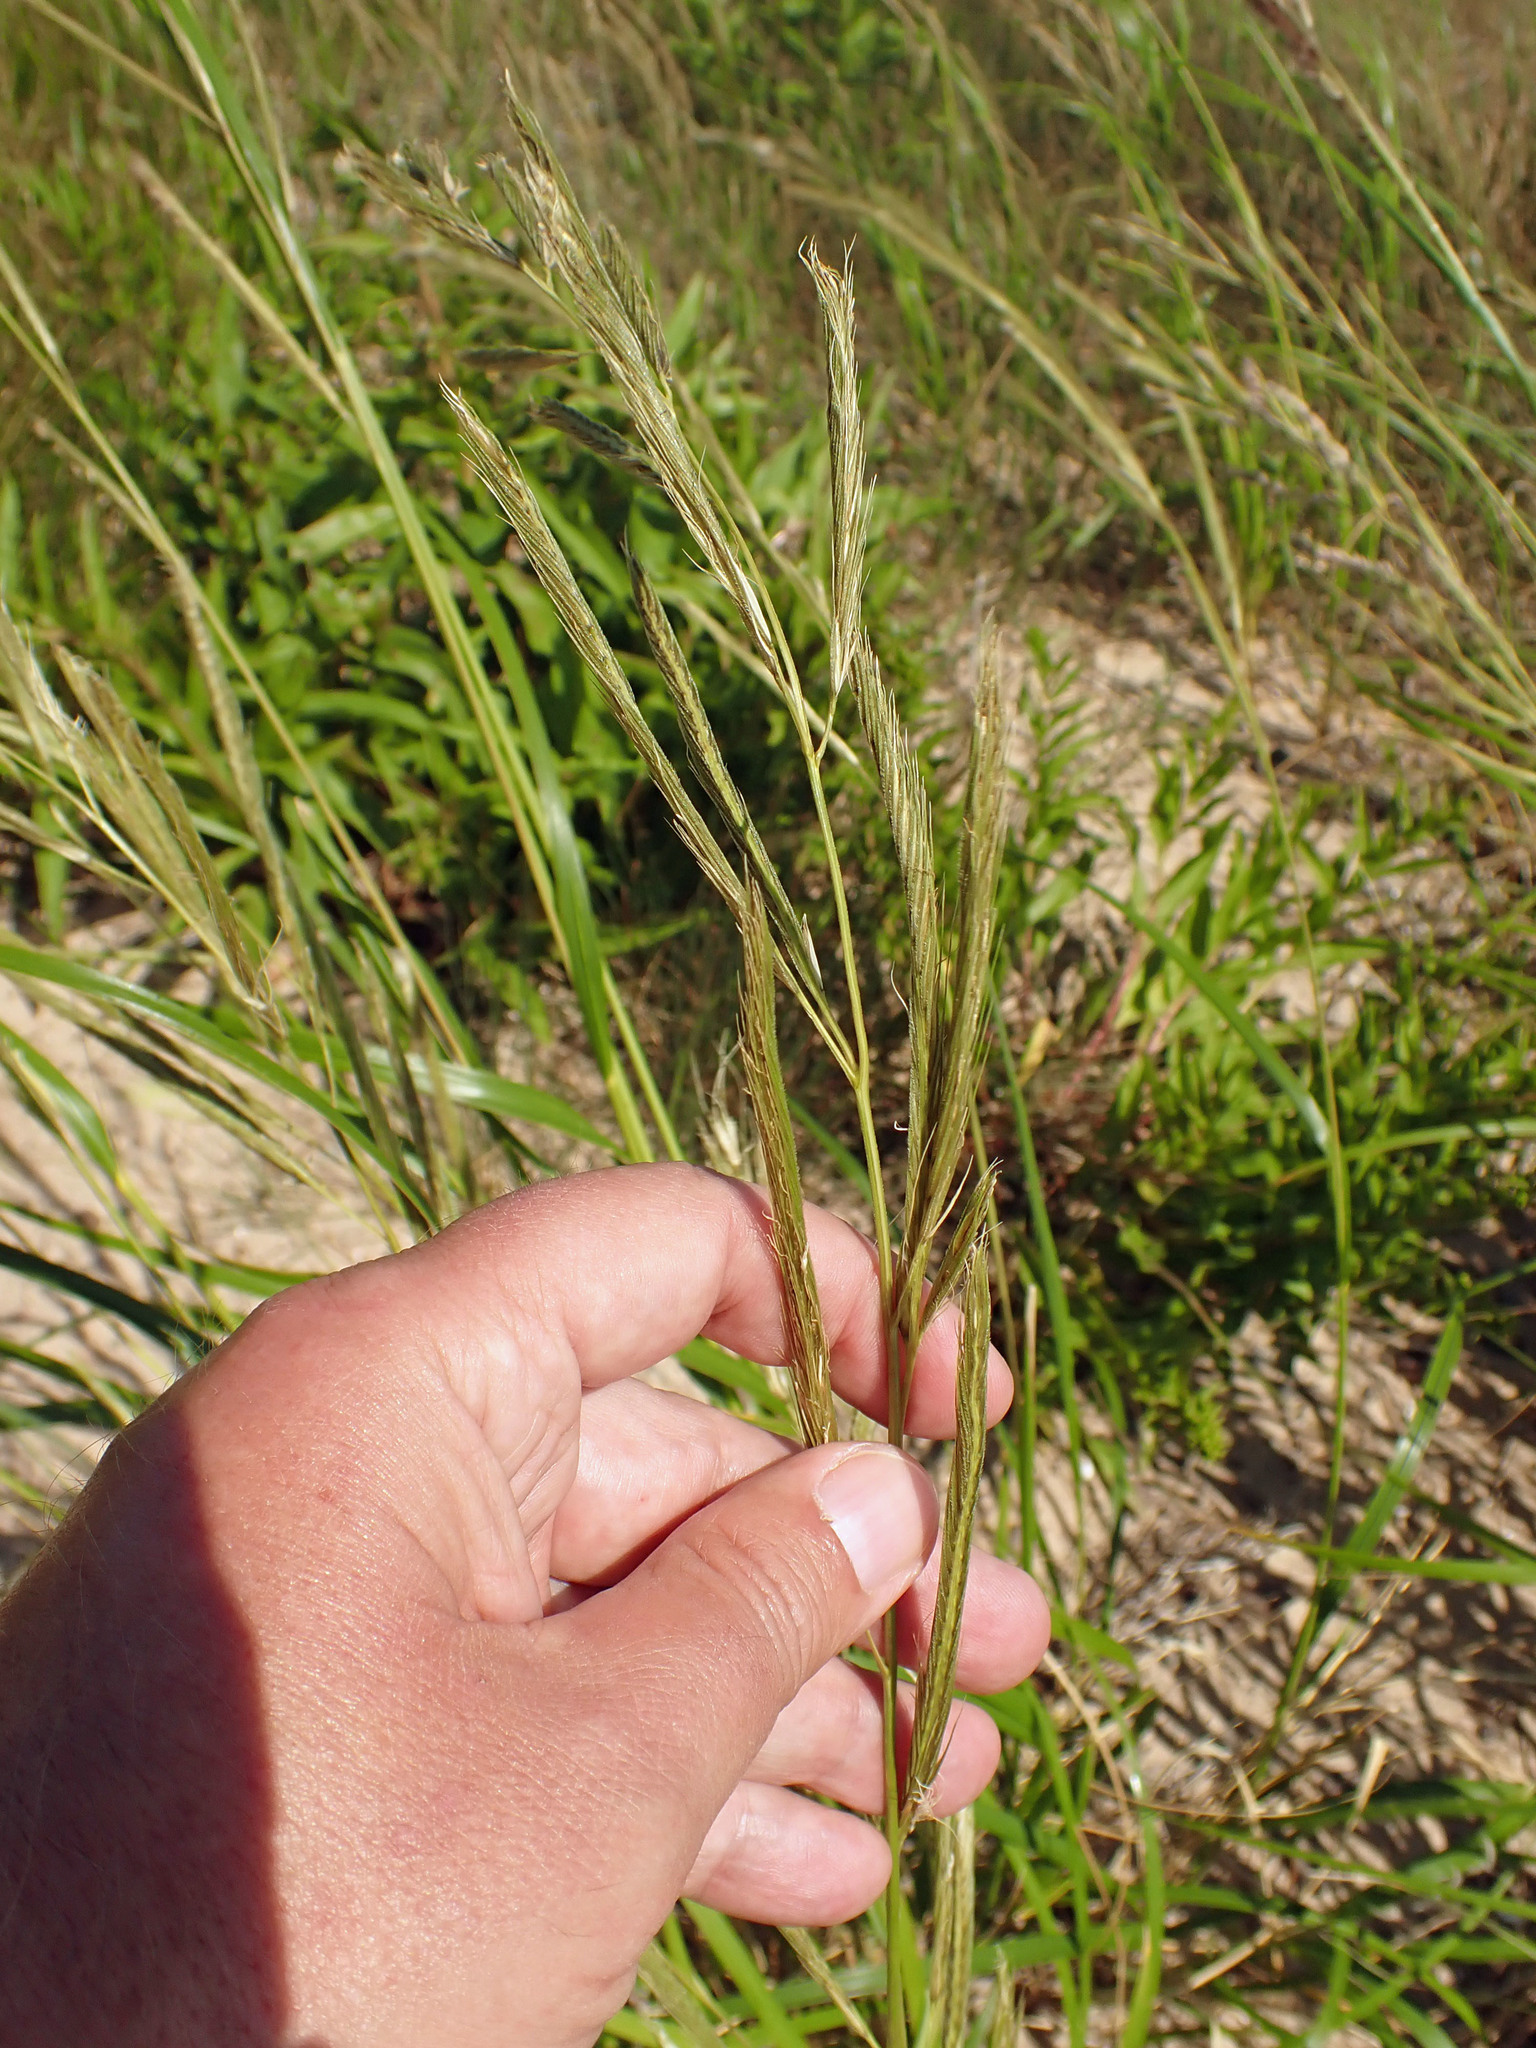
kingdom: Plantae
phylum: Tracheophyta
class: Liliopsida
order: Poales
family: Poaceae
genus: Sporobolus
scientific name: Sporobolus michauxianus
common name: Freshwater cordgrass
